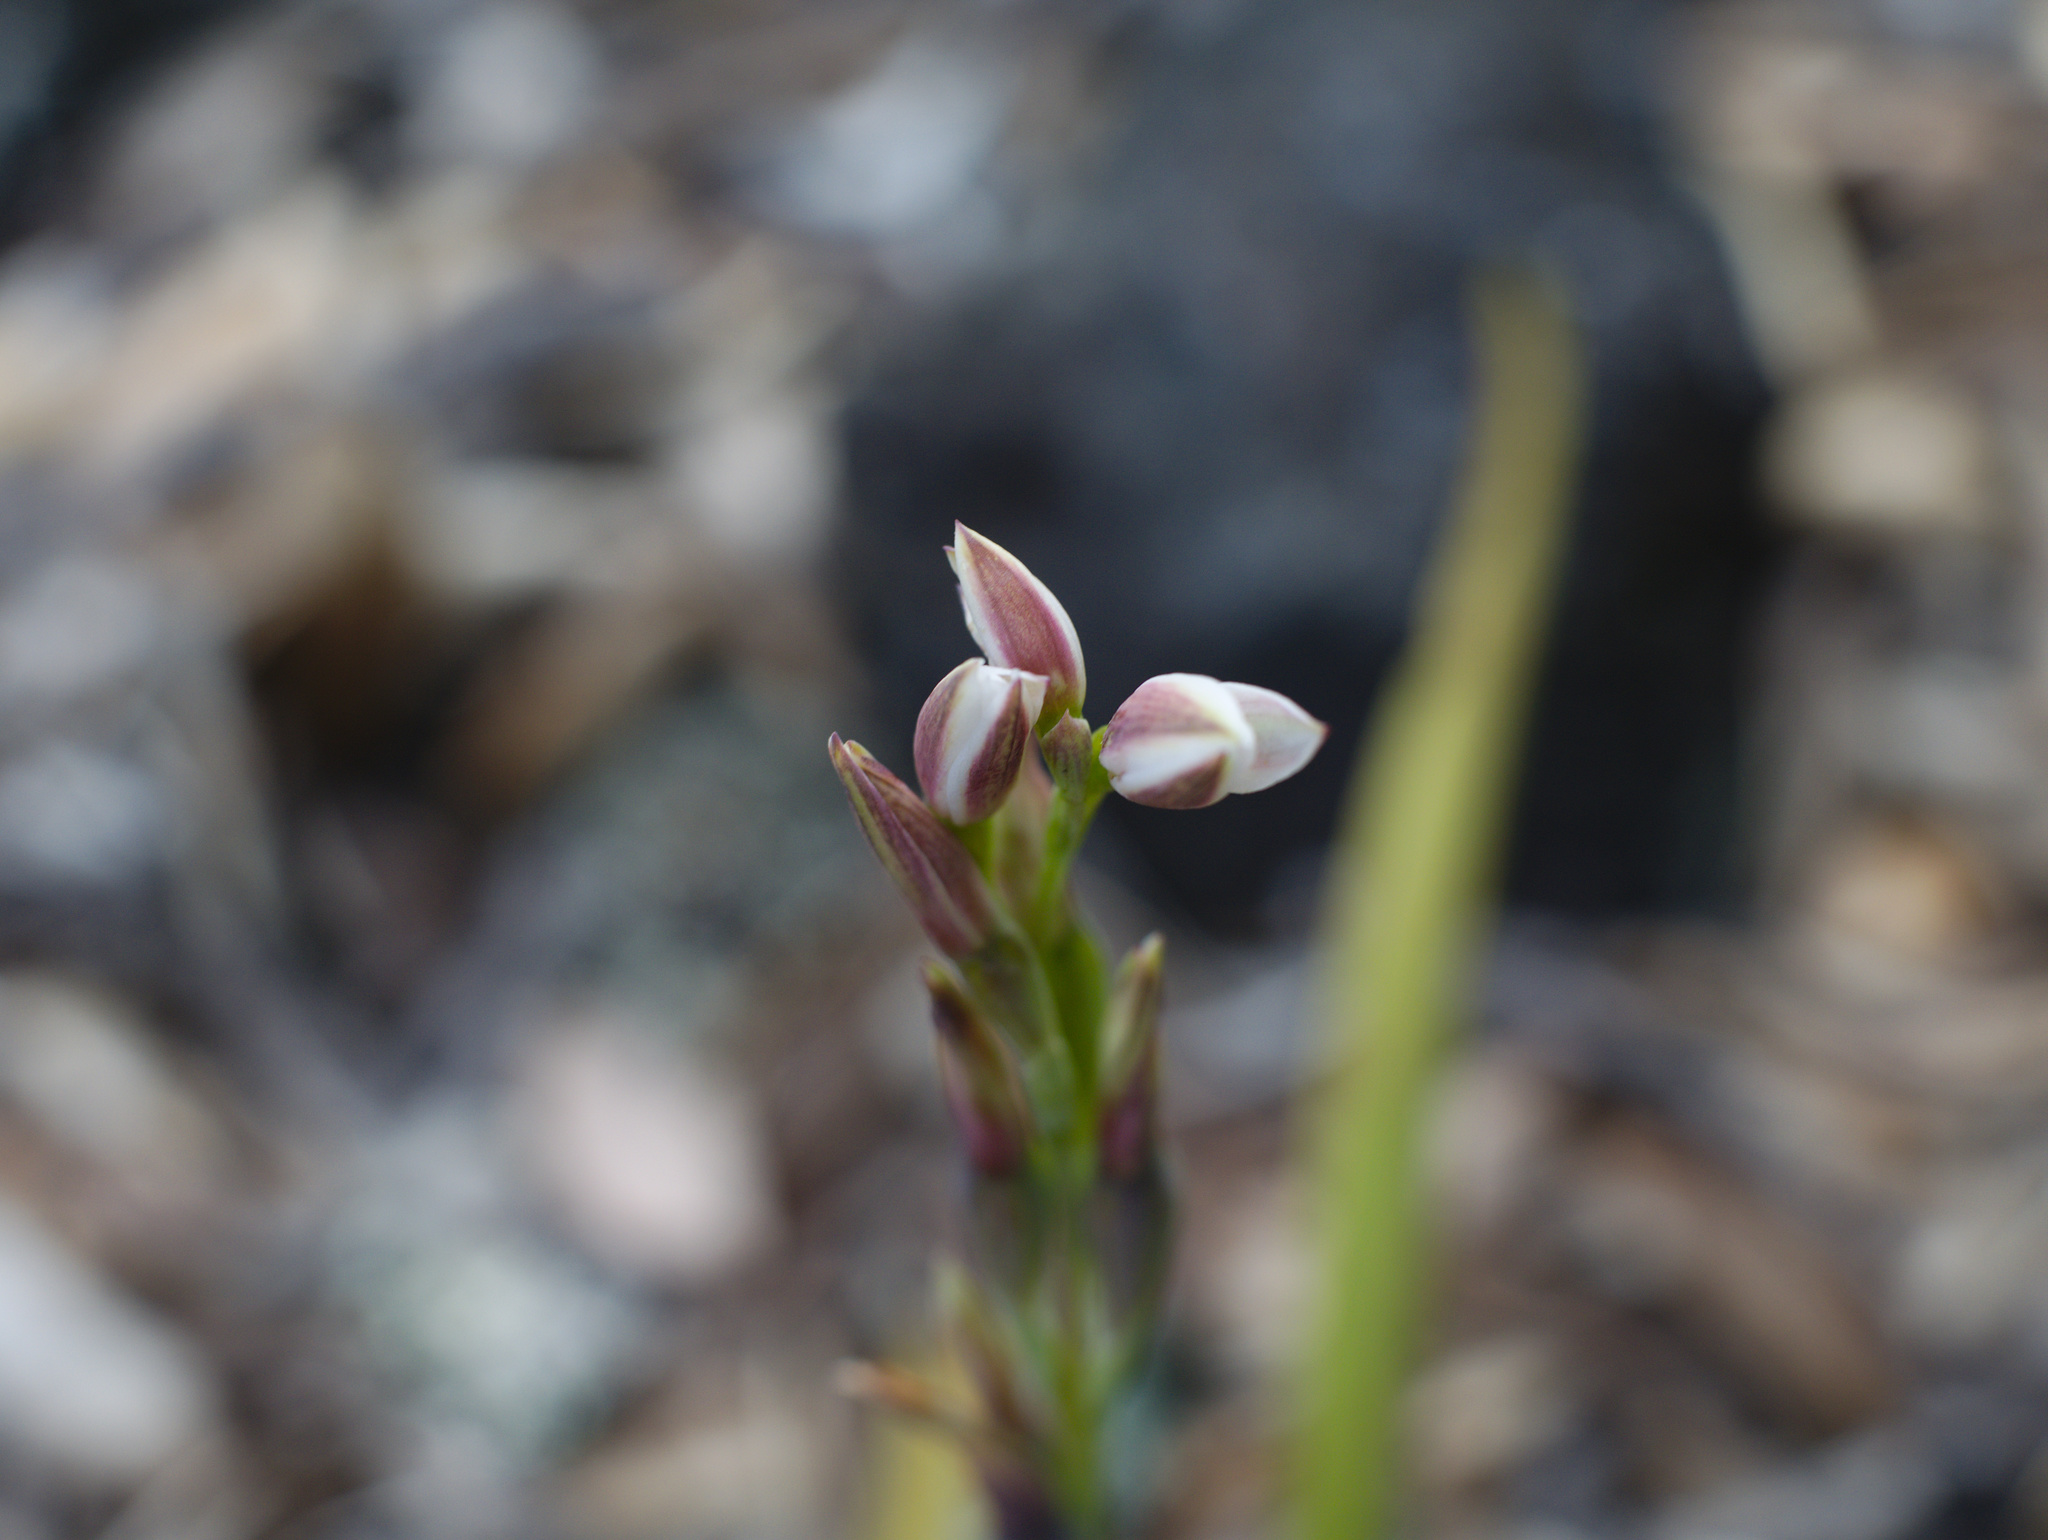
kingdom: Plantae
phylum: Tracheophyta
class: Liliopsida
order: Asparagales
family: Orchidaceae
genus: Thelymitra
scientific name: Thelymitra longifolia
